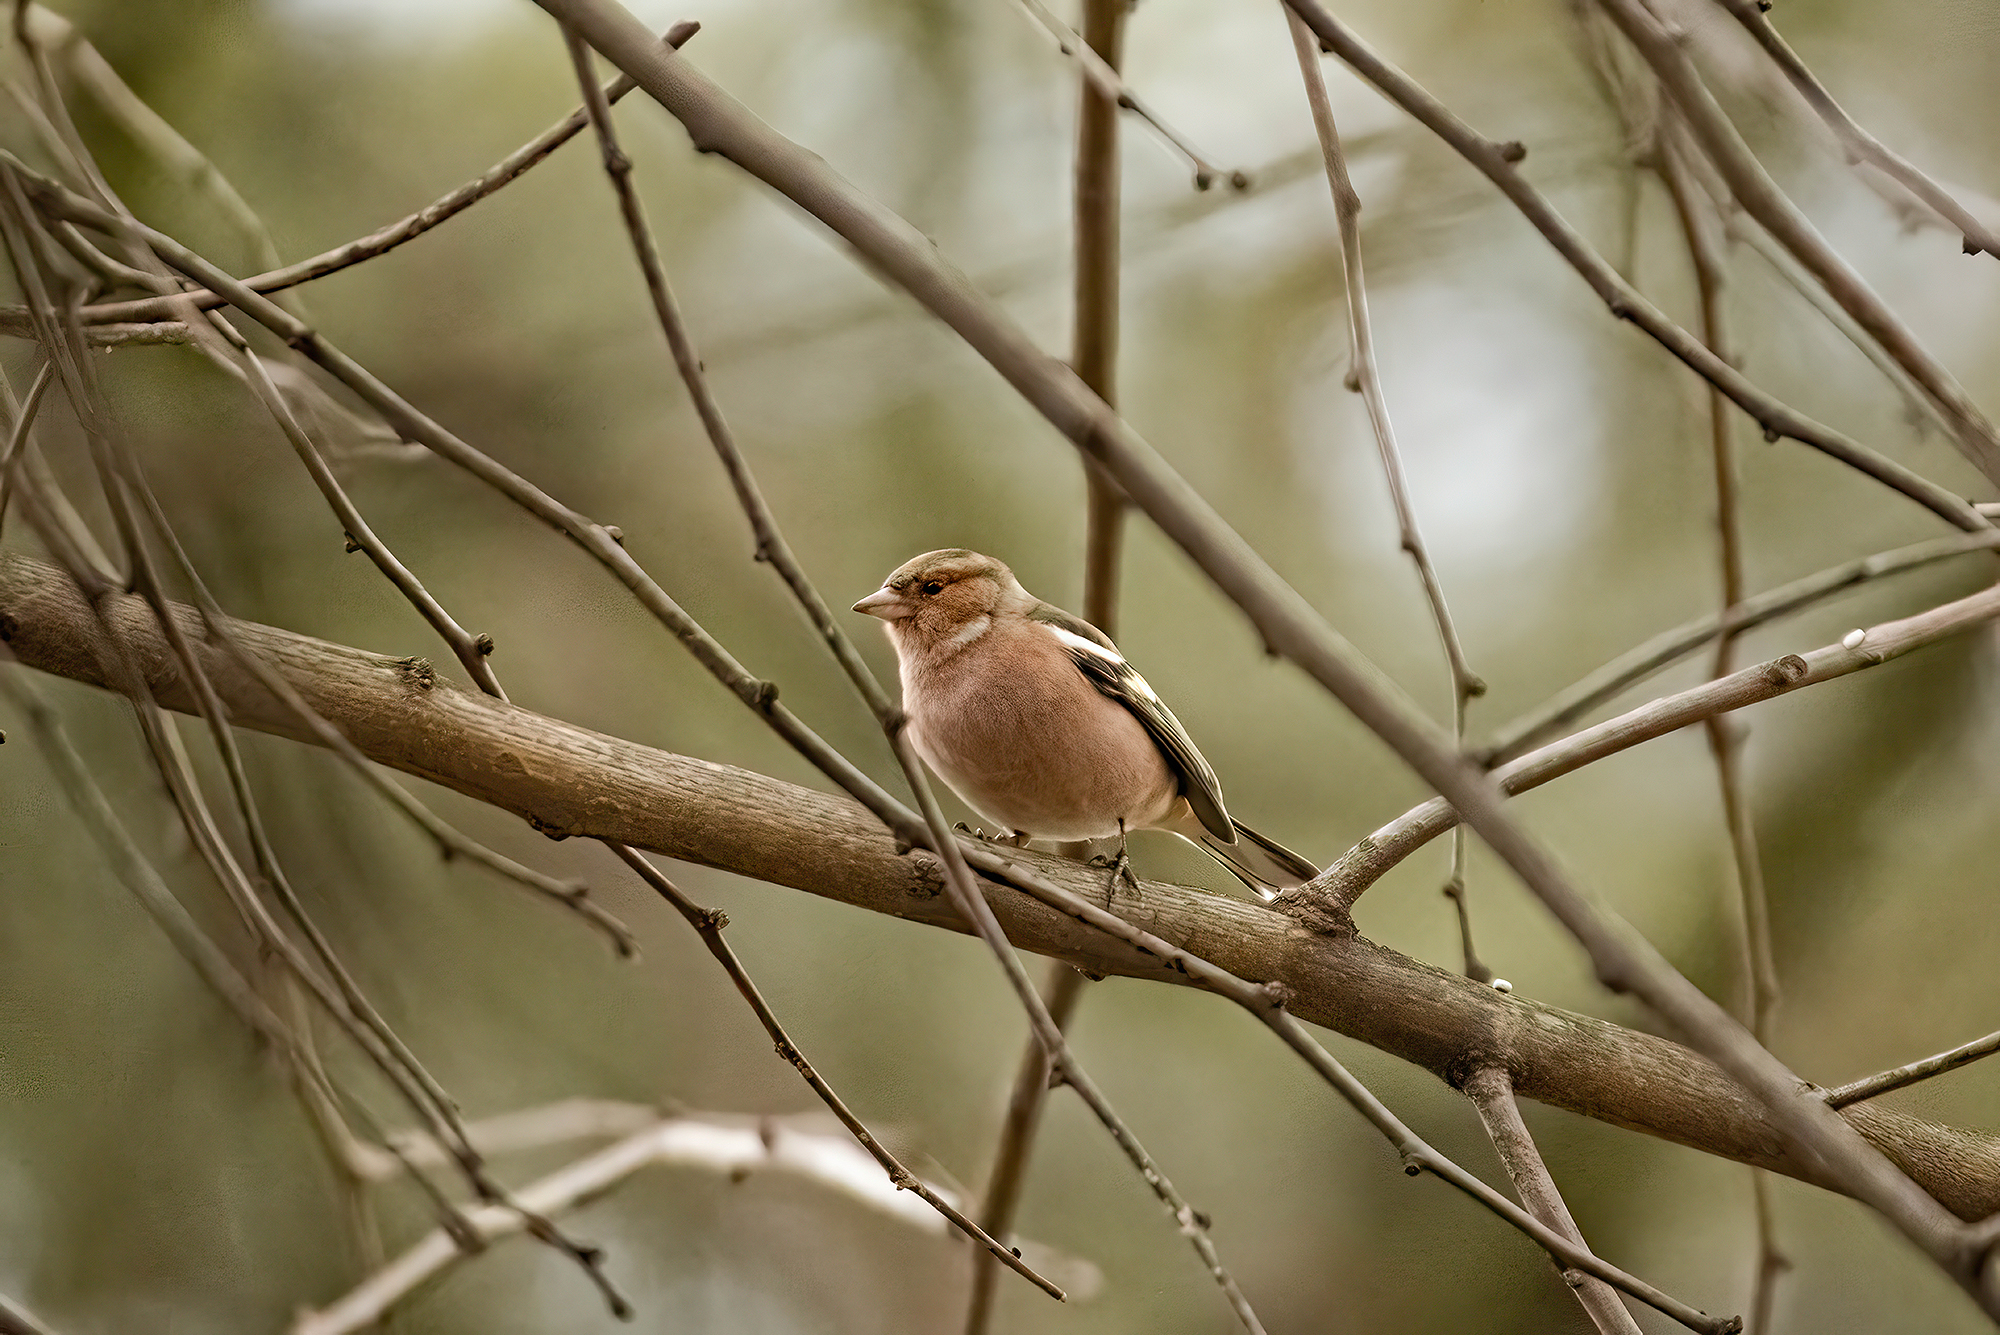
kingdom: Animalia
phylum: Chordata
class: Aves
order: Passeriformes
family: Fringillidae
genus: Fringilla
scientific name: Fringilla coelebs
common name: Common chaffinch
